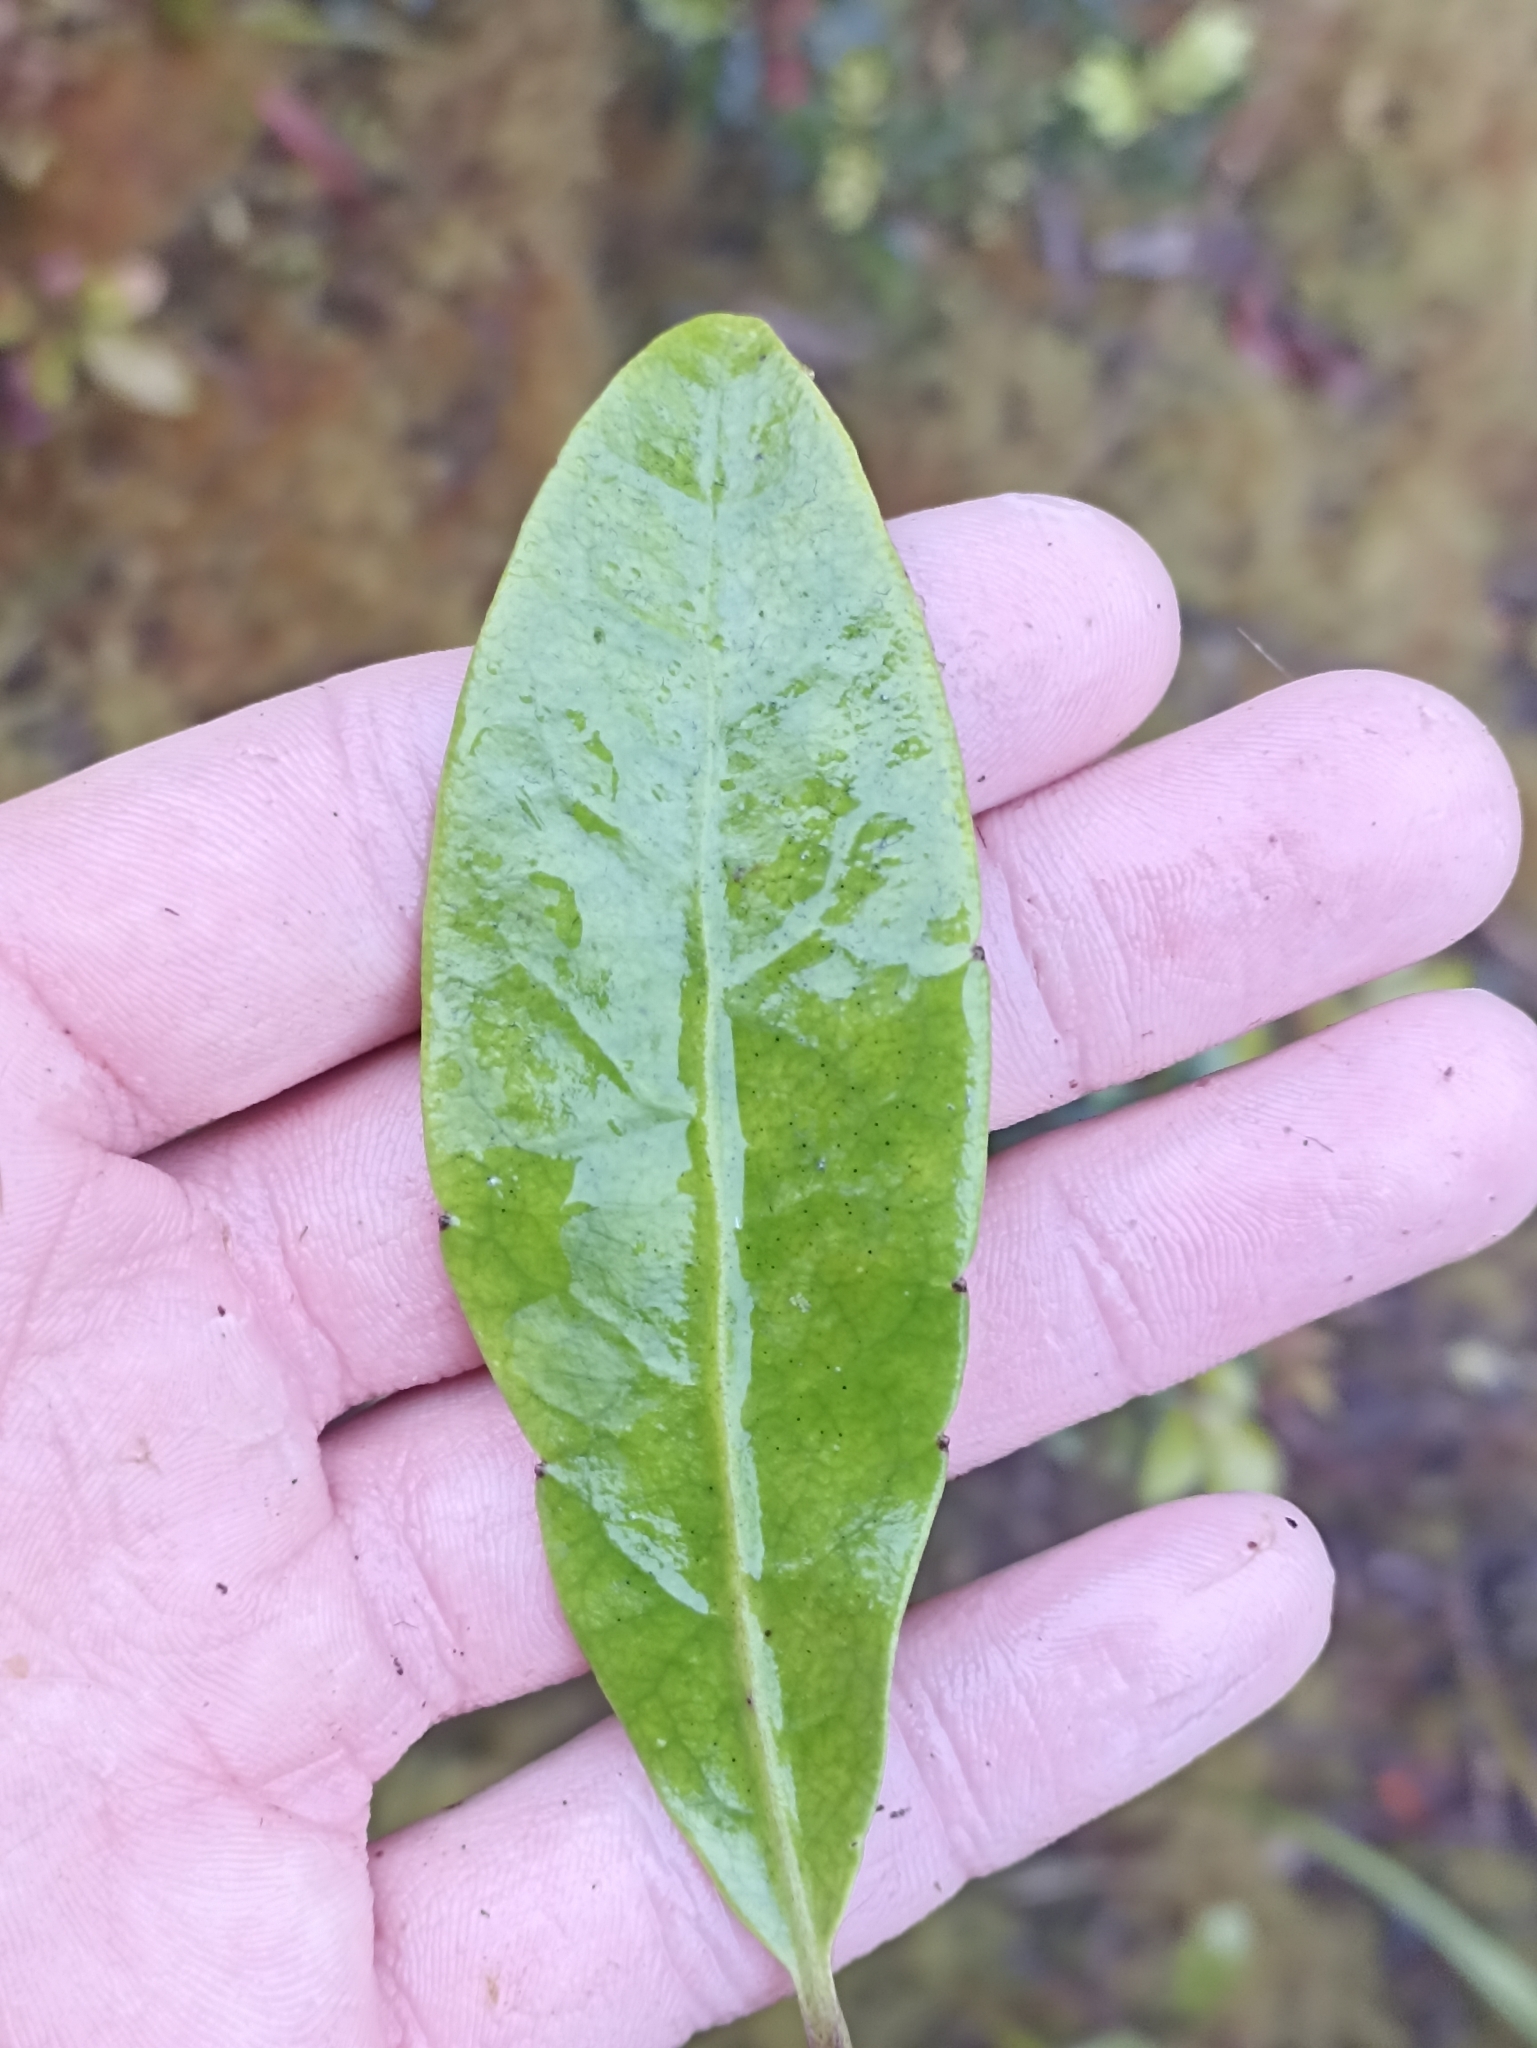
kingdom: Plantae
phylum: Tracheophyta
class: Magnoliopsida
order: Asterales
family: Alseuosmiaceae
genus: Alseuosmia
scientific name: Alseuosmia macrophylla
